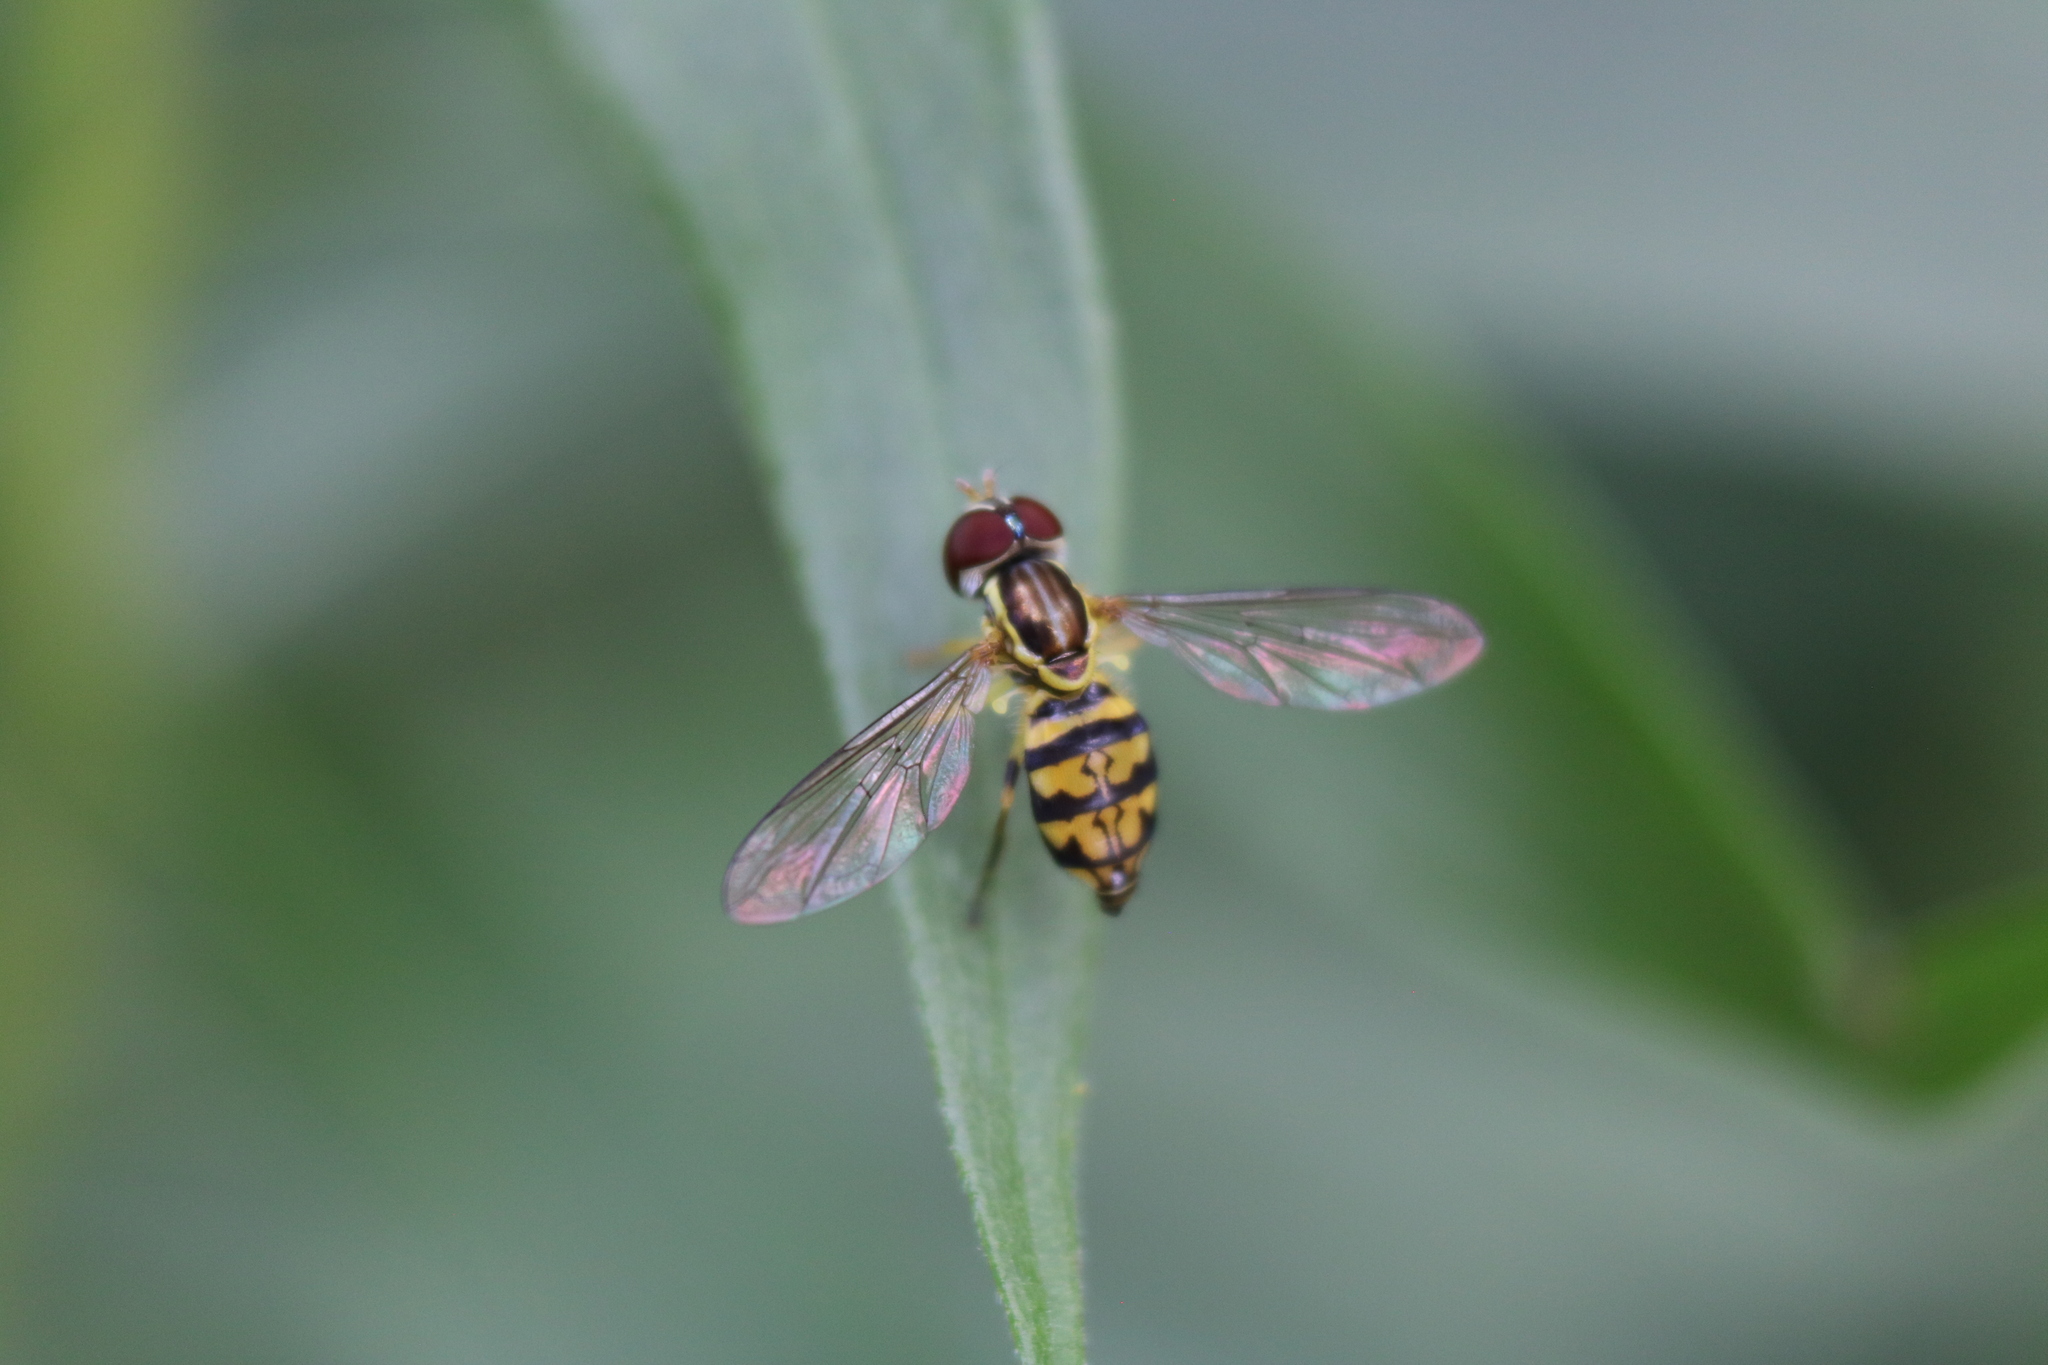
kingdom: Animalia
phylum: Arthropoda
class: Insecta
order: Diptera
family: Syrphidae
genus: Toxomerus
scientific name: Toxomerus geminatus
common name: Eastern calligrapher
